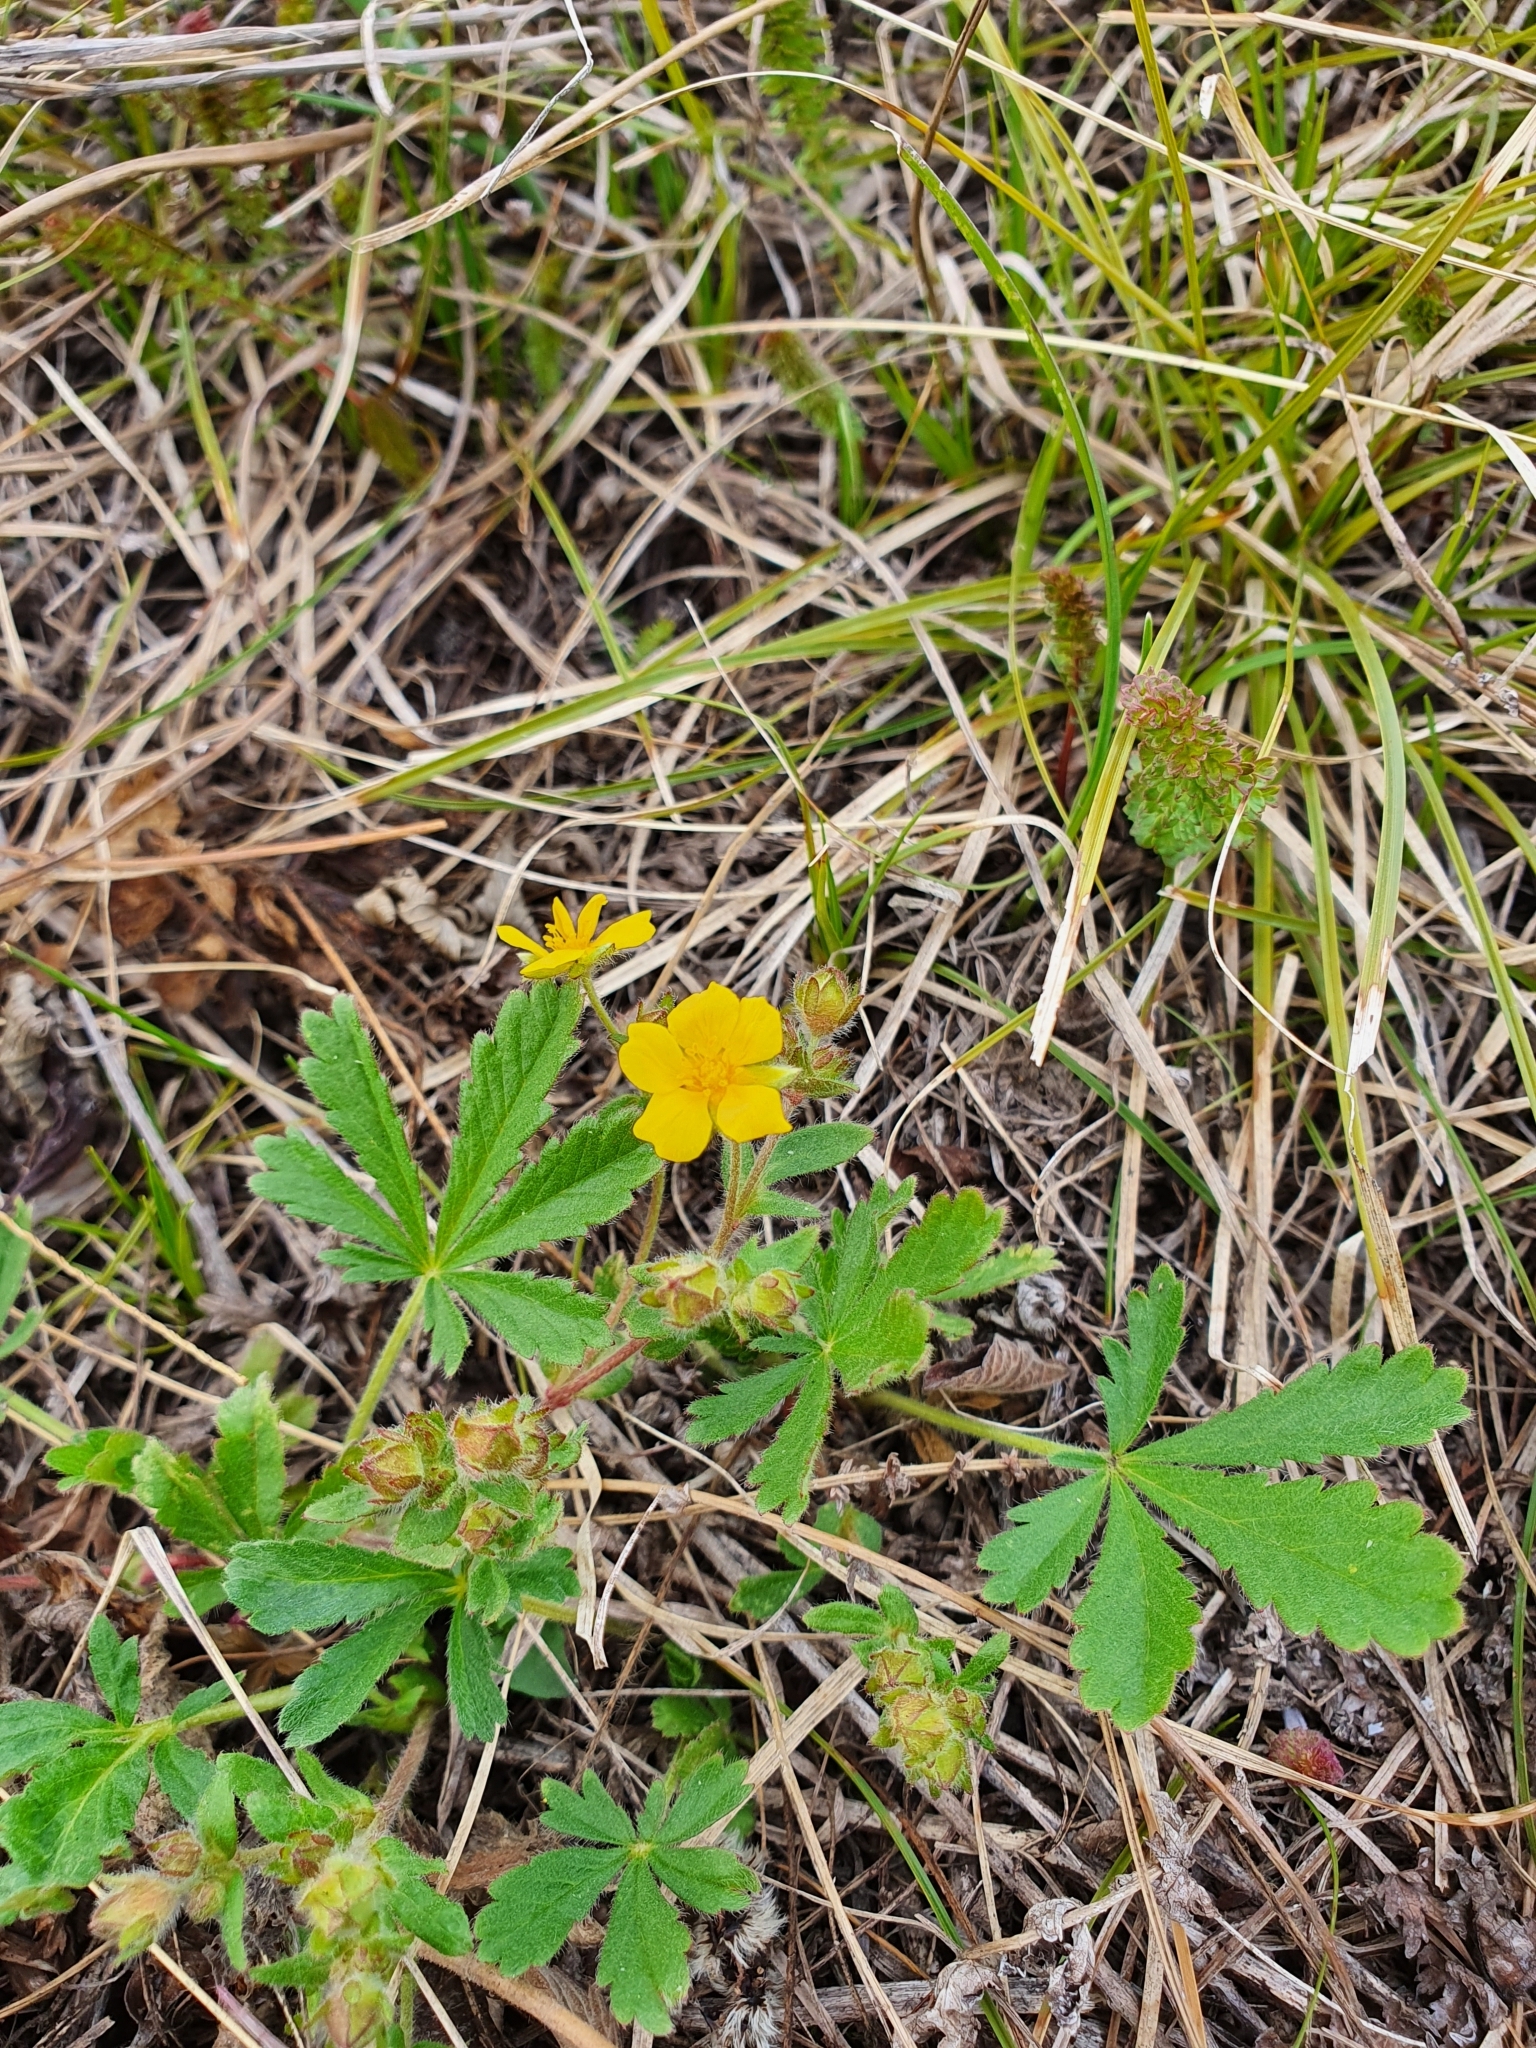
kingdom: Plantae
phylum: Tracheophyta
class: Magnoliopsida
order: Rosales
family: Rosaceae
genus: Potentilla
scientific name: Potentilla humifusa
